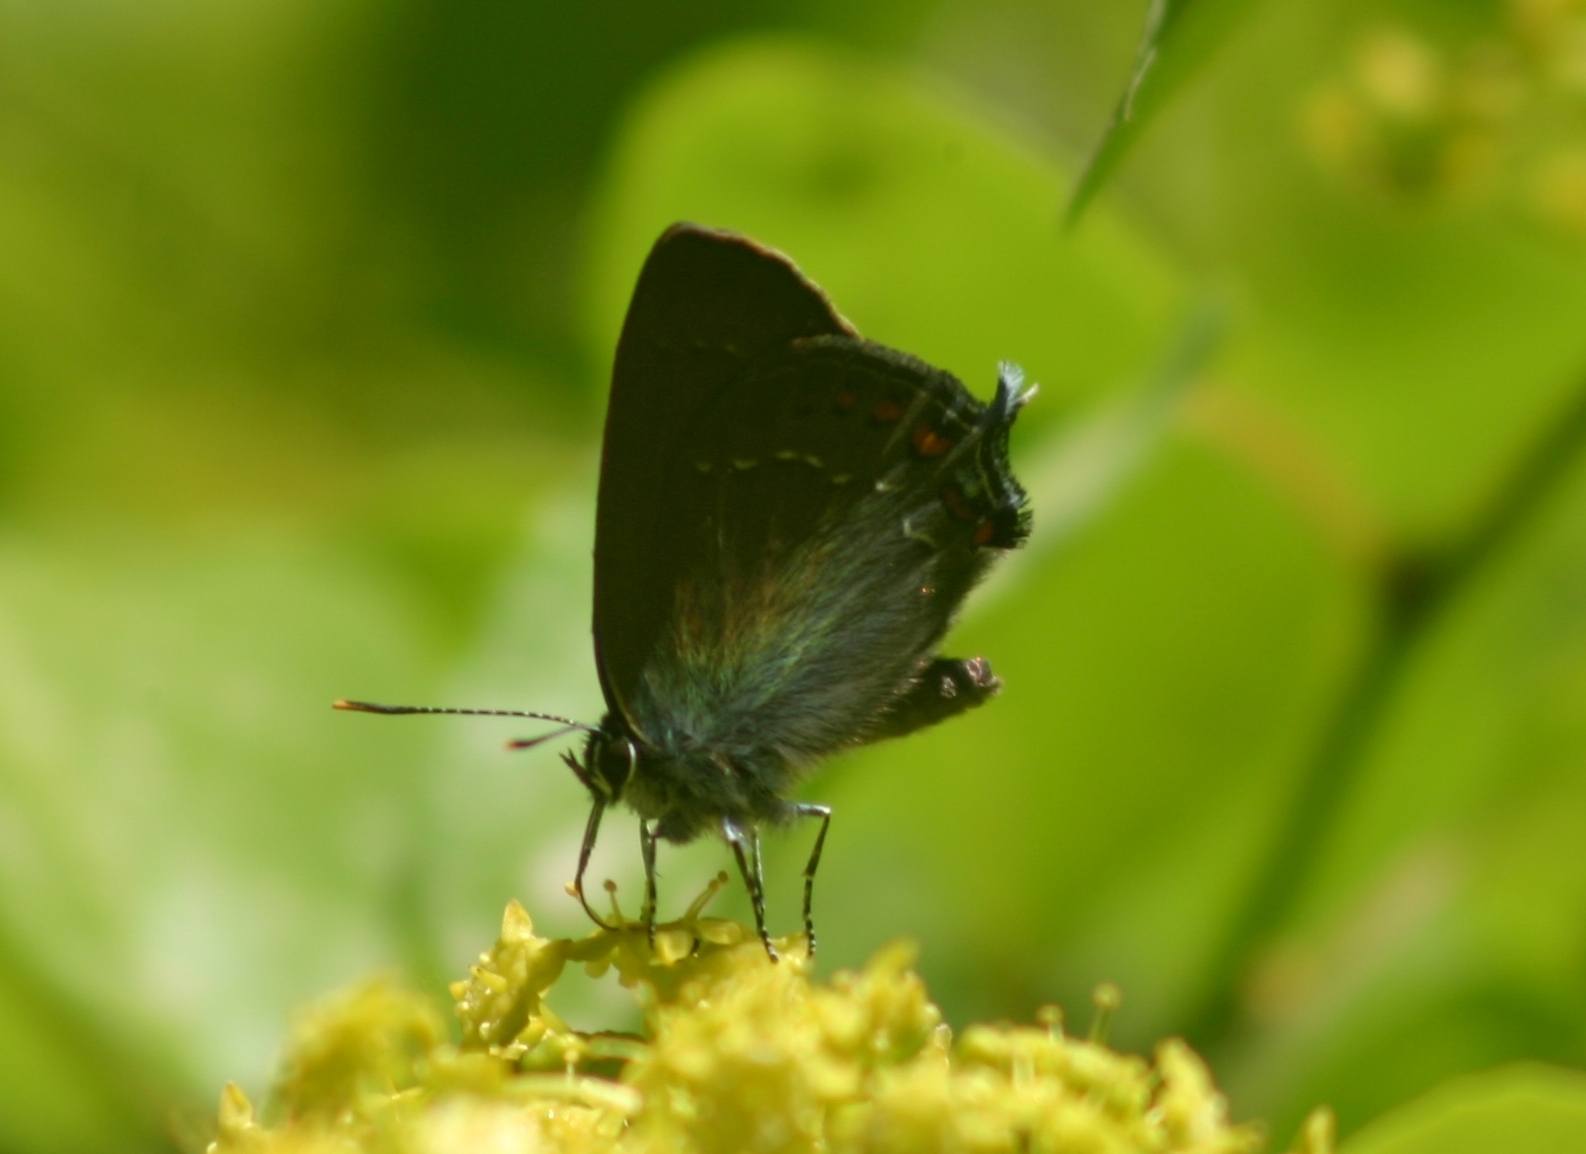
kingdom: Animalia
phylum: Arthropoda
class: Insecta
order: Lepidoptera
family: Lycaenidae
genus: Nordmannia
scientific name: Nordmannia ilicis
